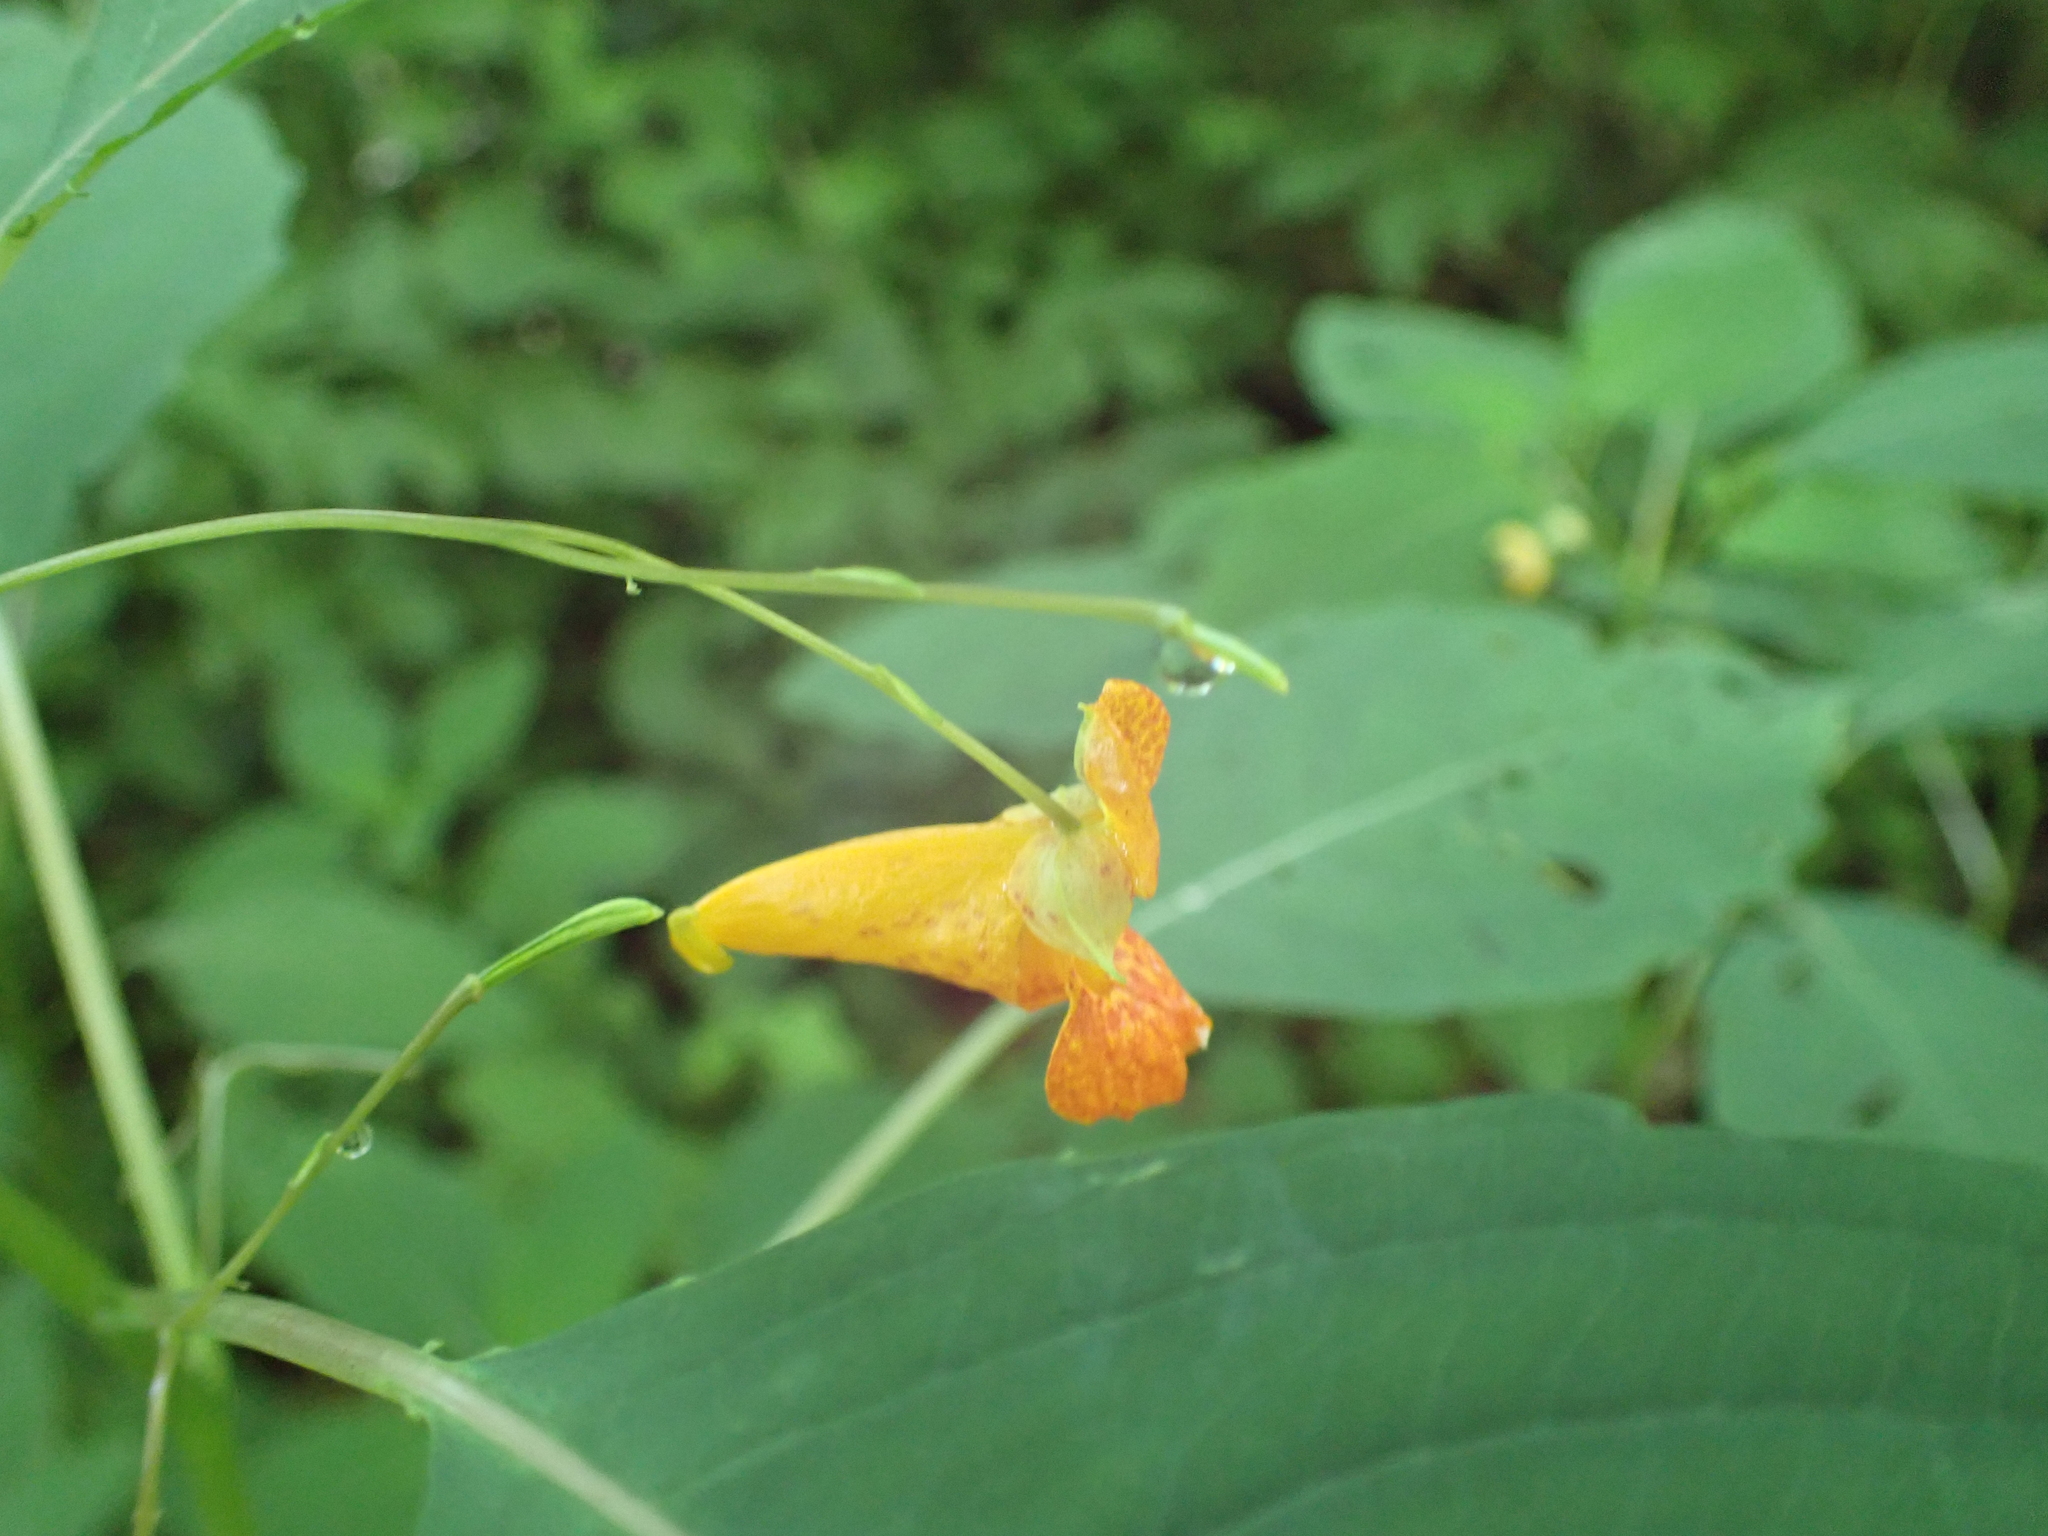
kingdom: Plantae
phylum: Tracheophyta
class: Magnoliopsida
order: Ericales
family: Balsaminaceae
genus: Impatiens
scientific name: Impatiens capensis
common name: Orange balsam
